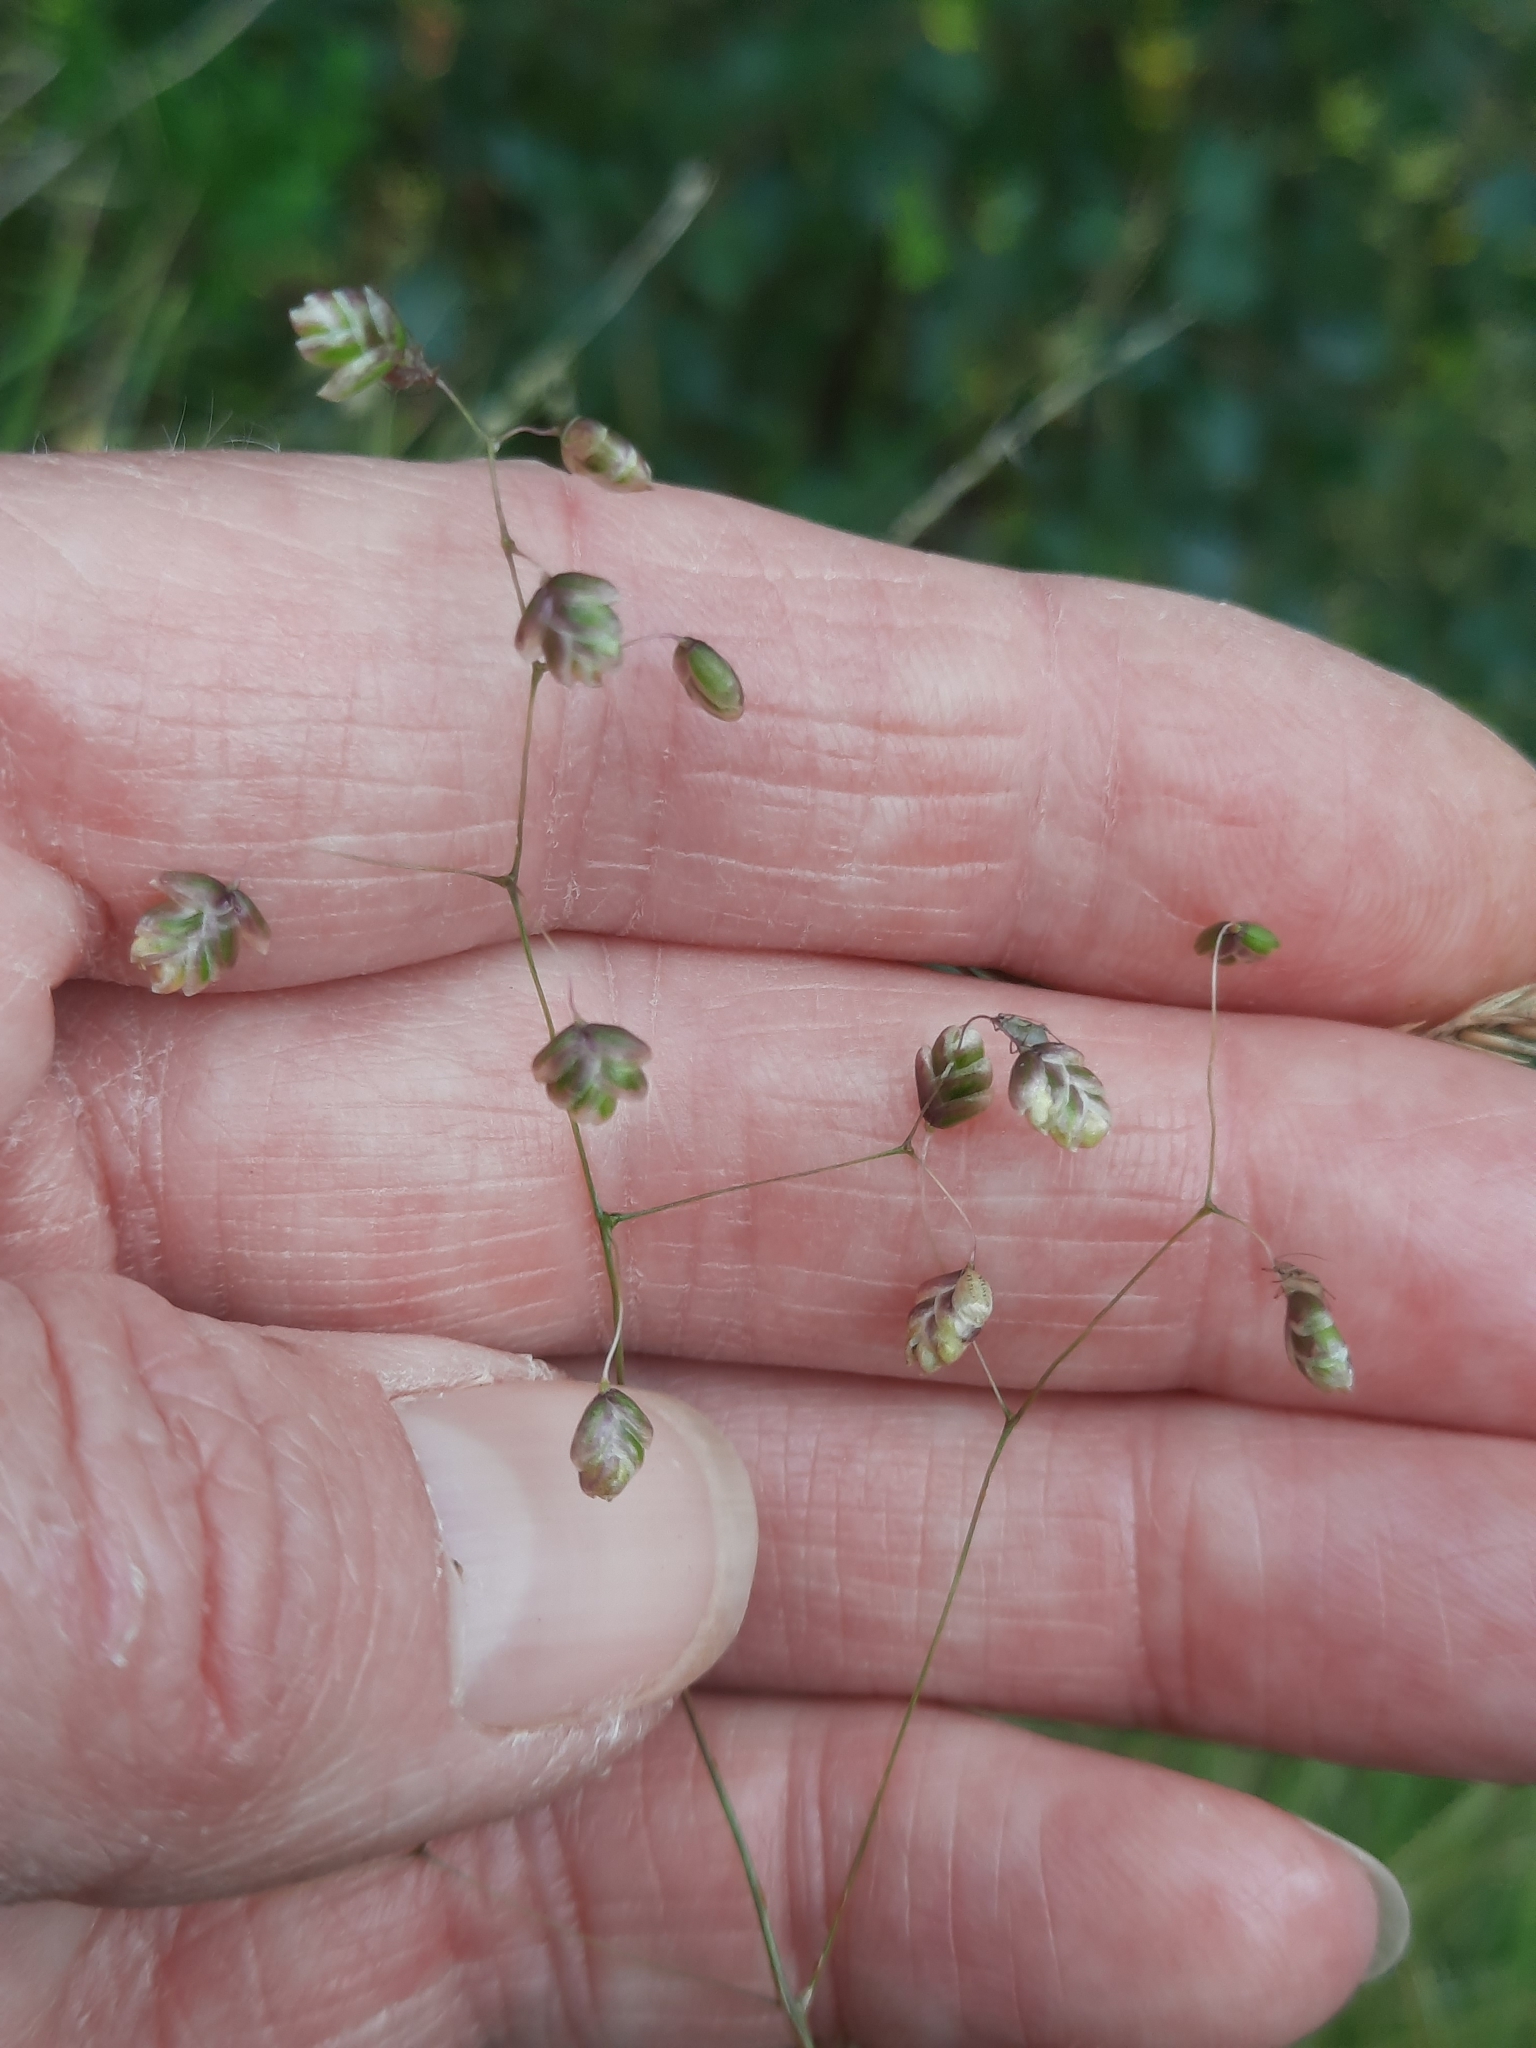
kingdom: Plantae
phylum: Tracheophyta
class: Liliopsida
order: Poales
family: Poaceae
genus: Briza
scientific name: Briza media
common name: Quaking grass
